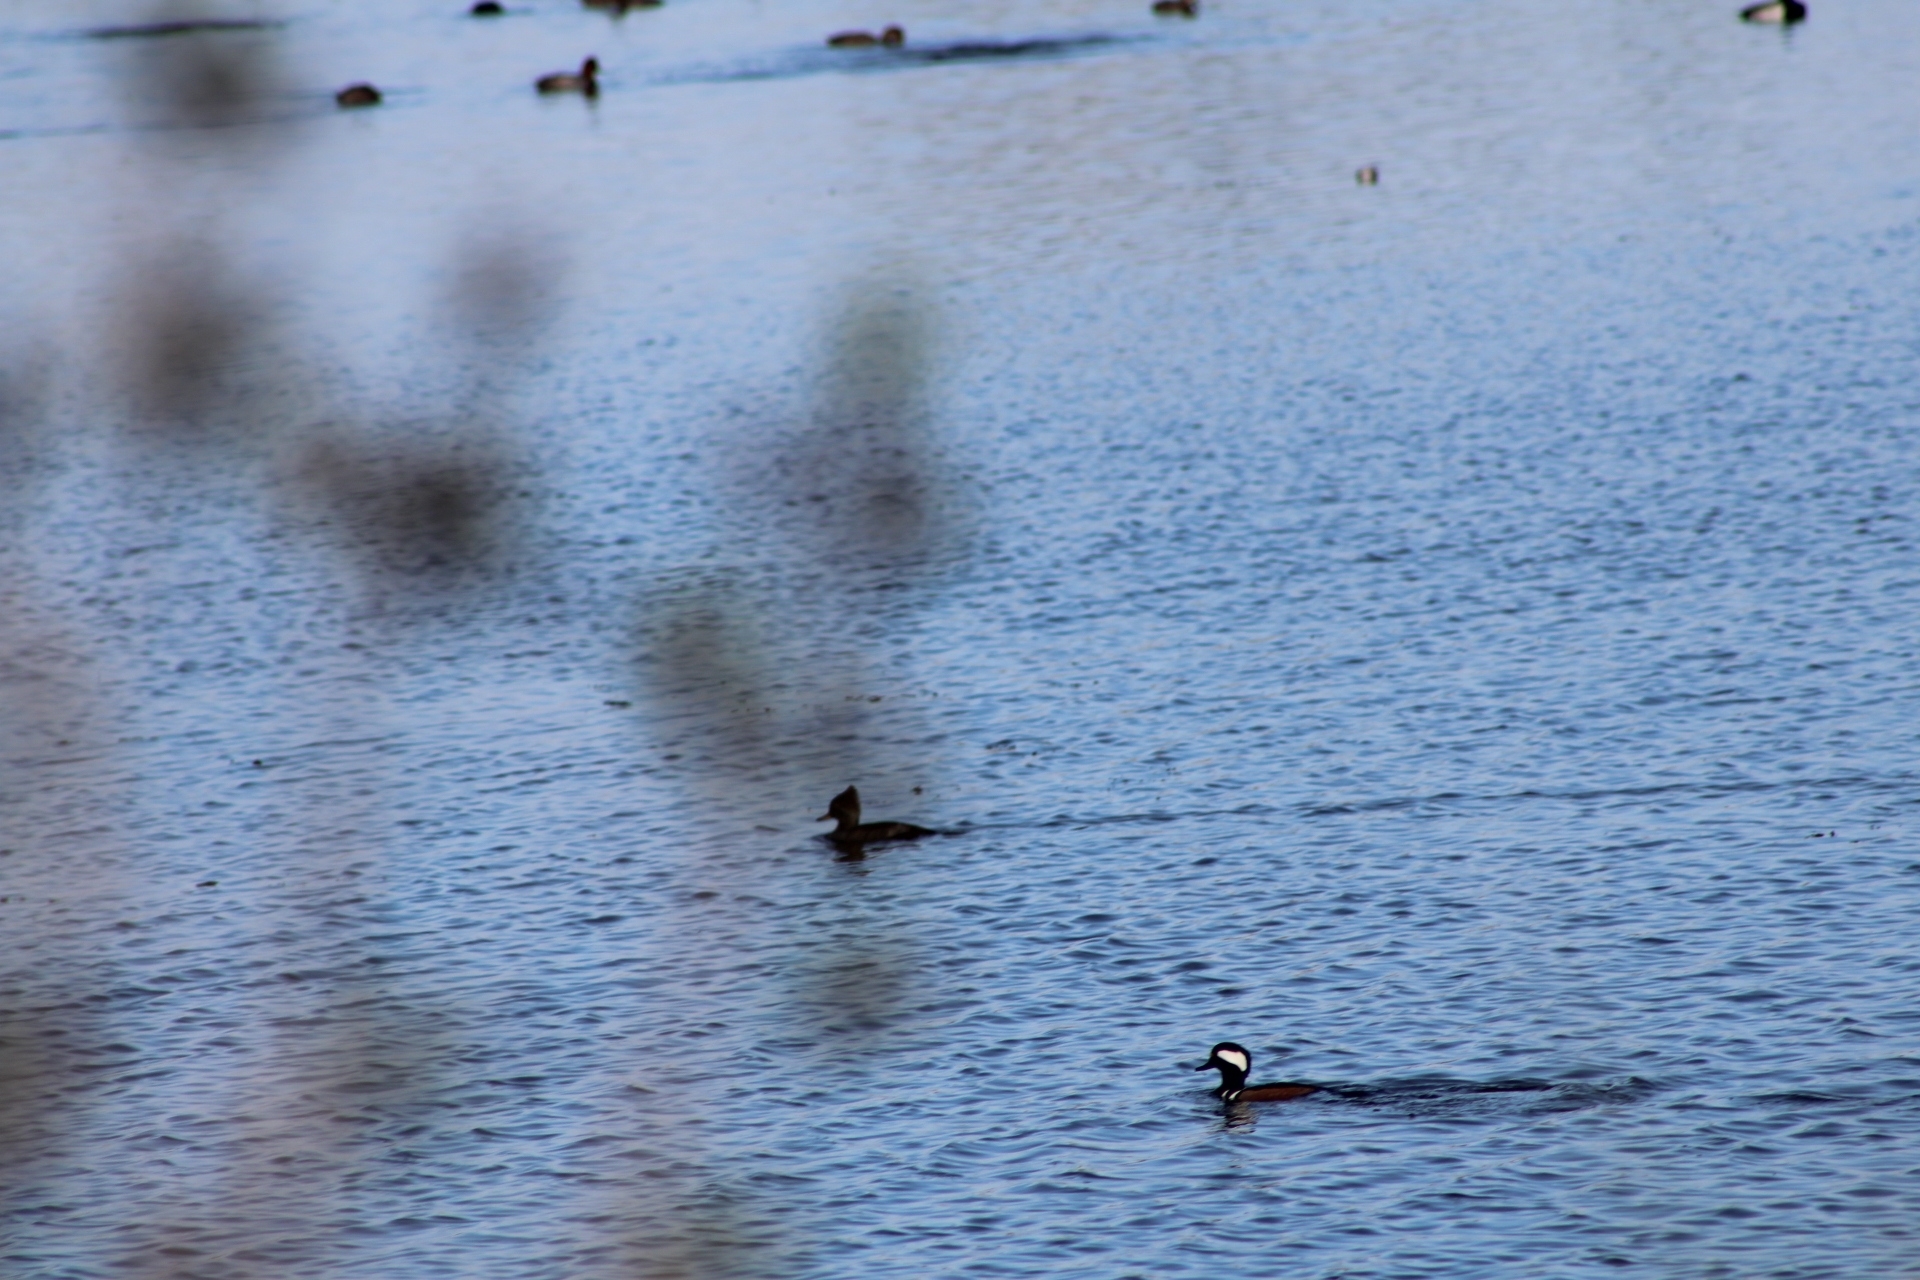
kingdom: Animalia
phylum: Chordata
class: Aves
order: Anseriformes
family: Anatidae
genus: Lophodytes
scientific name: Lophodytes cucullatus
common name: Hooded merganser
